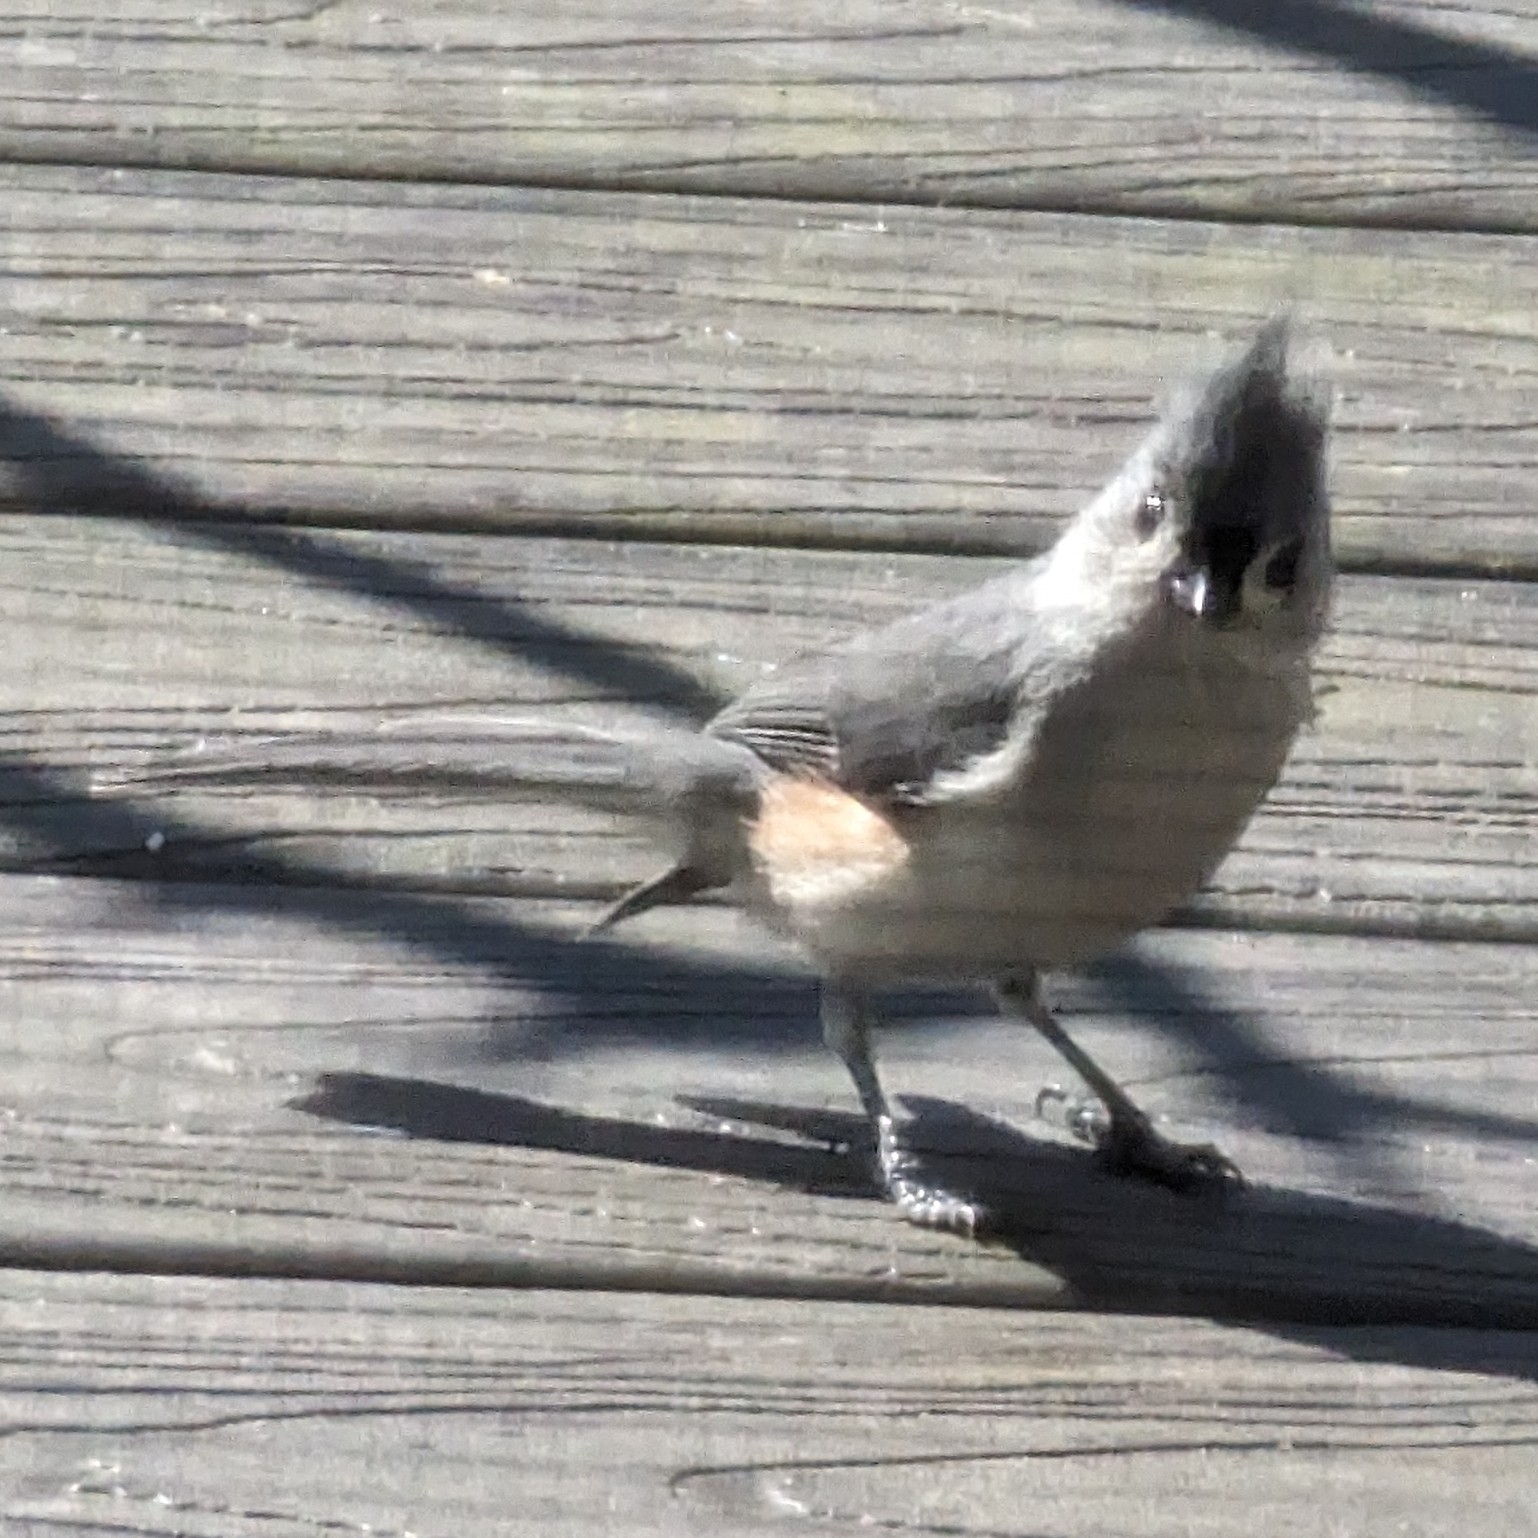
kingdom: Animalia
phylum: Chordata
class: Aves
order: Passeriformes
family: Paridae
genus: Baeolophus
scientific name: Baeolophus bicolor
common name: Tufted titmouse
